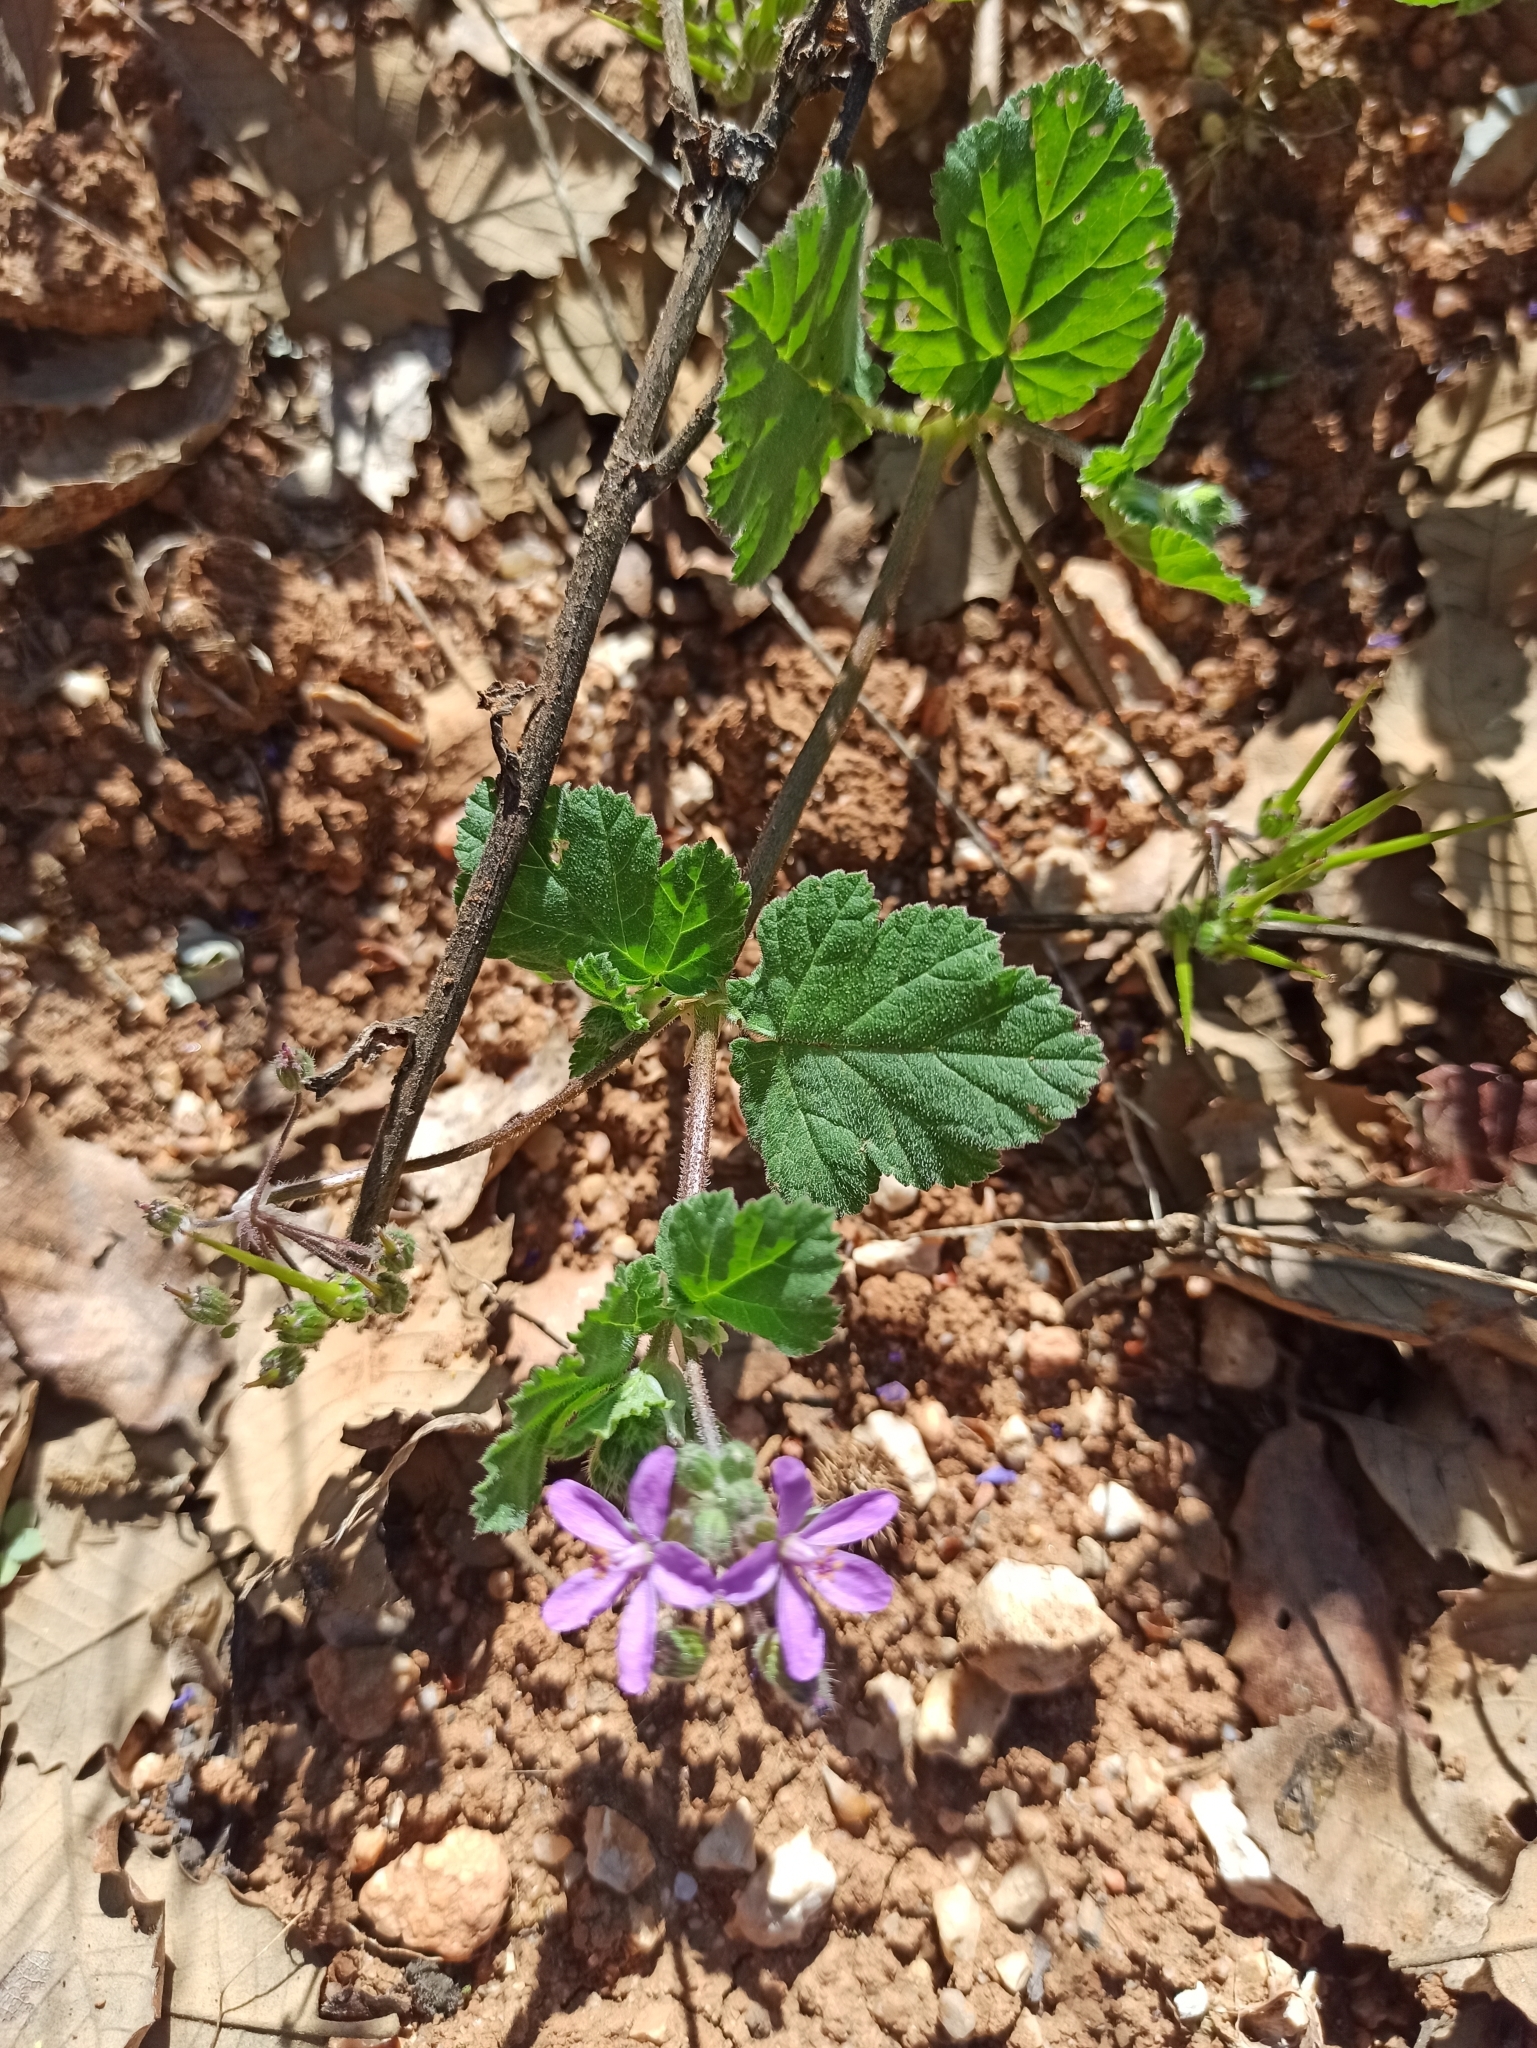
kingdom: Plantae
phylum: Tracheophyta
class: Magnoliopsida
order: Geraniales
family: Geraniaceae
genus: Erodium
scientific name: Erodium malacoides
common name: Soft stork's-bill
